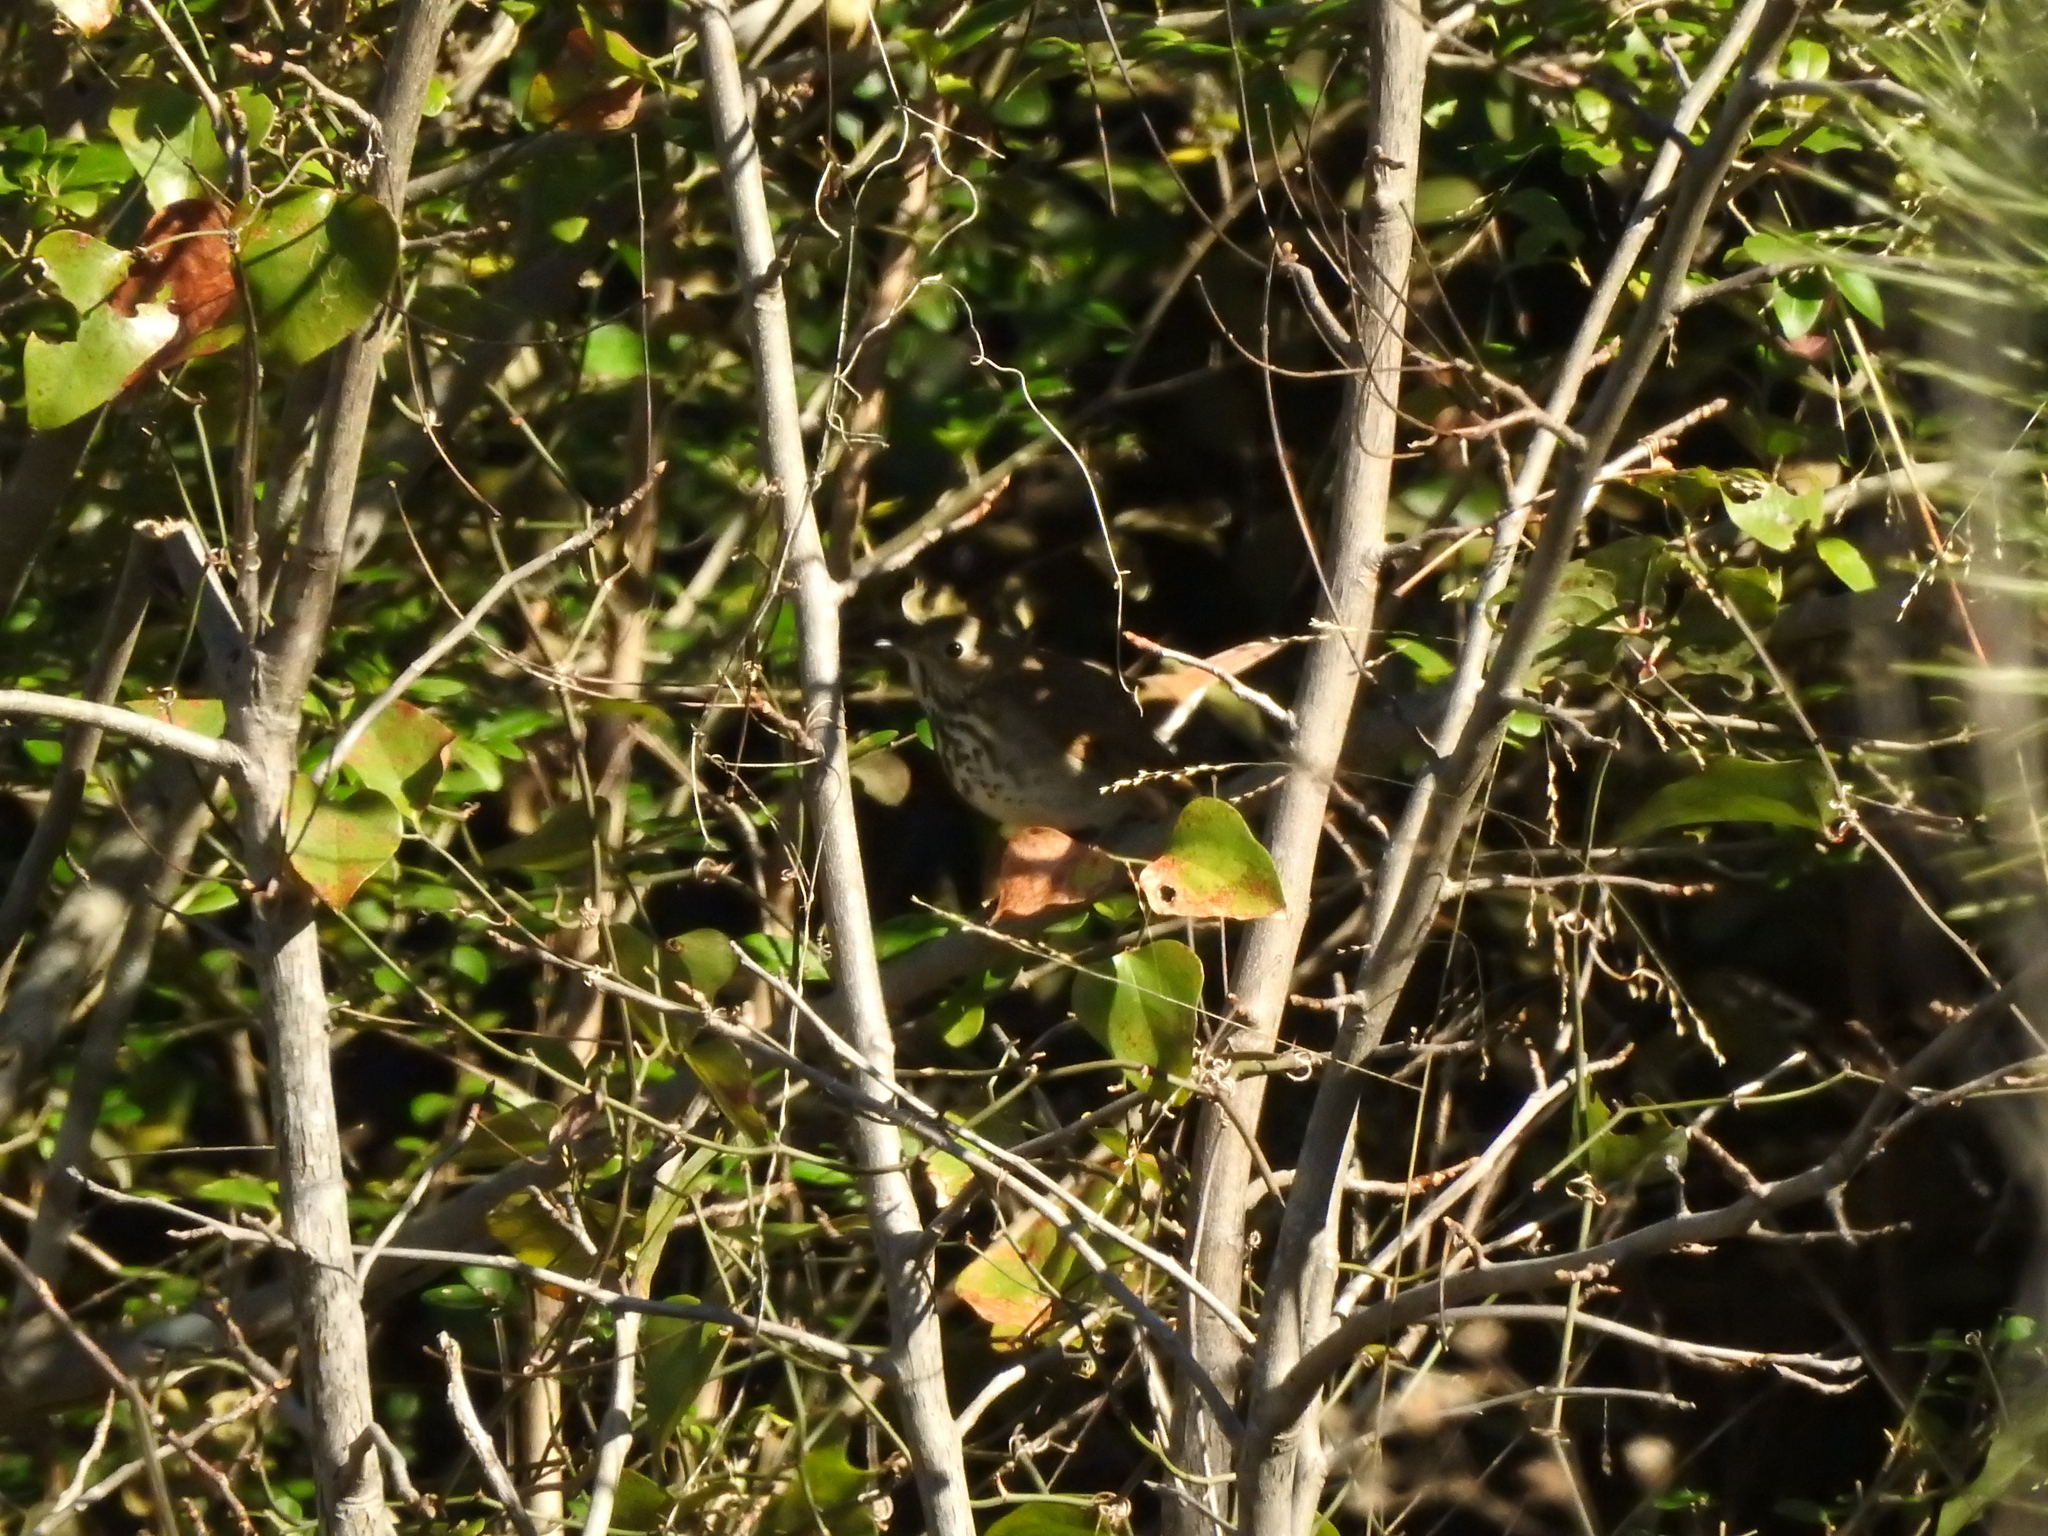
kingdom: Animalia
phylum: Chordata
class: Aves
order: Passeriformes
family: Turdidae
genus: Catharus
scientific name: Catharus guttatus
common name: Hermit thrush
